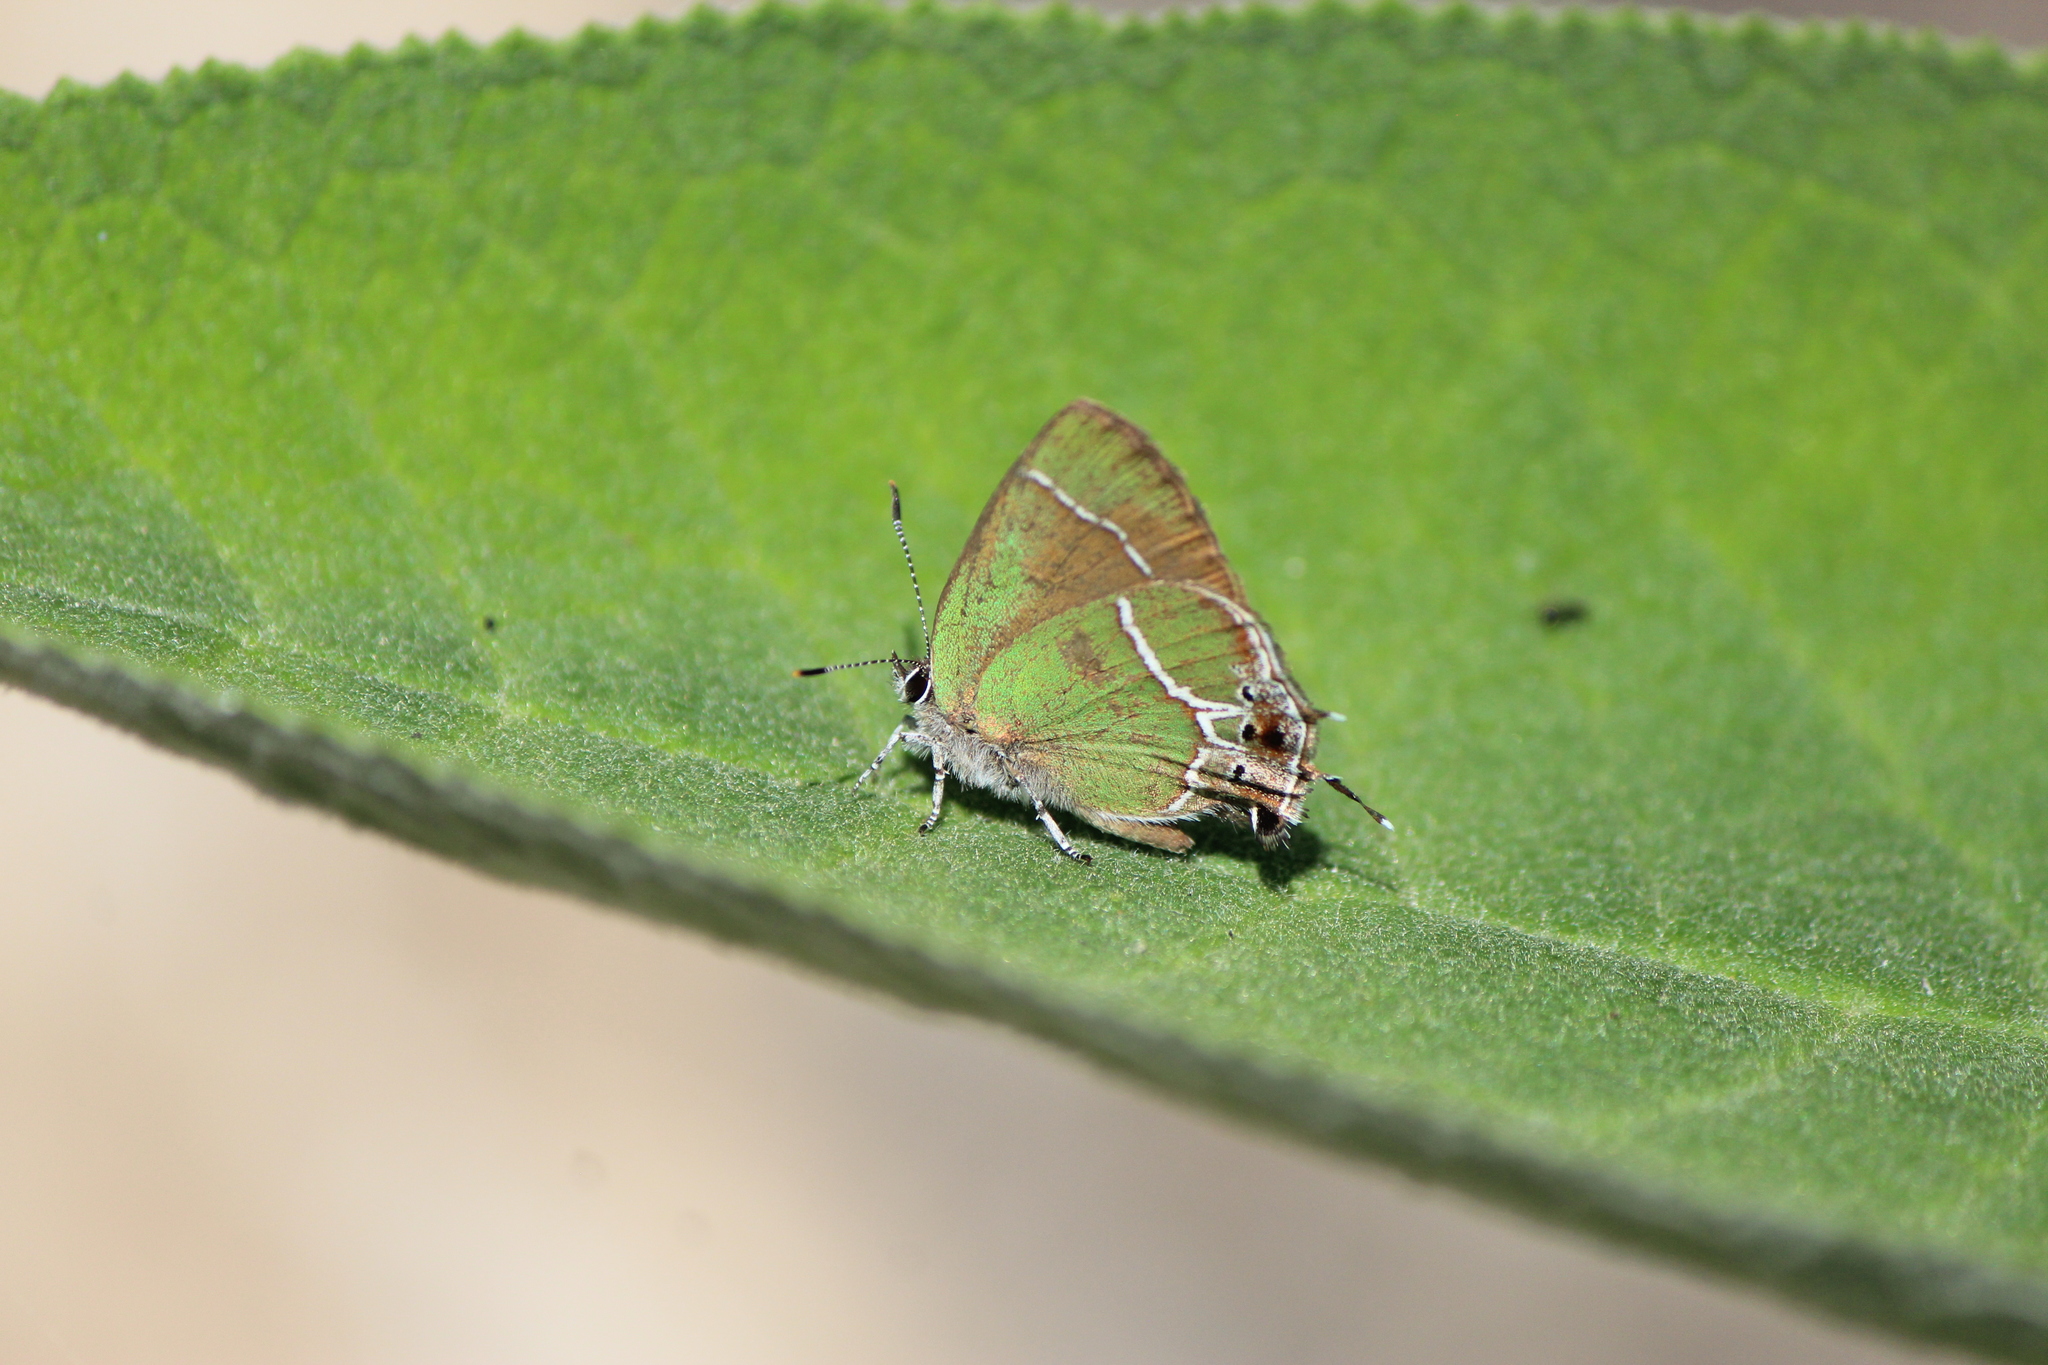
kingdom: Animalia
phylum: Arthropoda
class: Insecta
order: Lepidoptera
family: Lycaenidae
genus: Xamia
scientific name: Xamia xami
